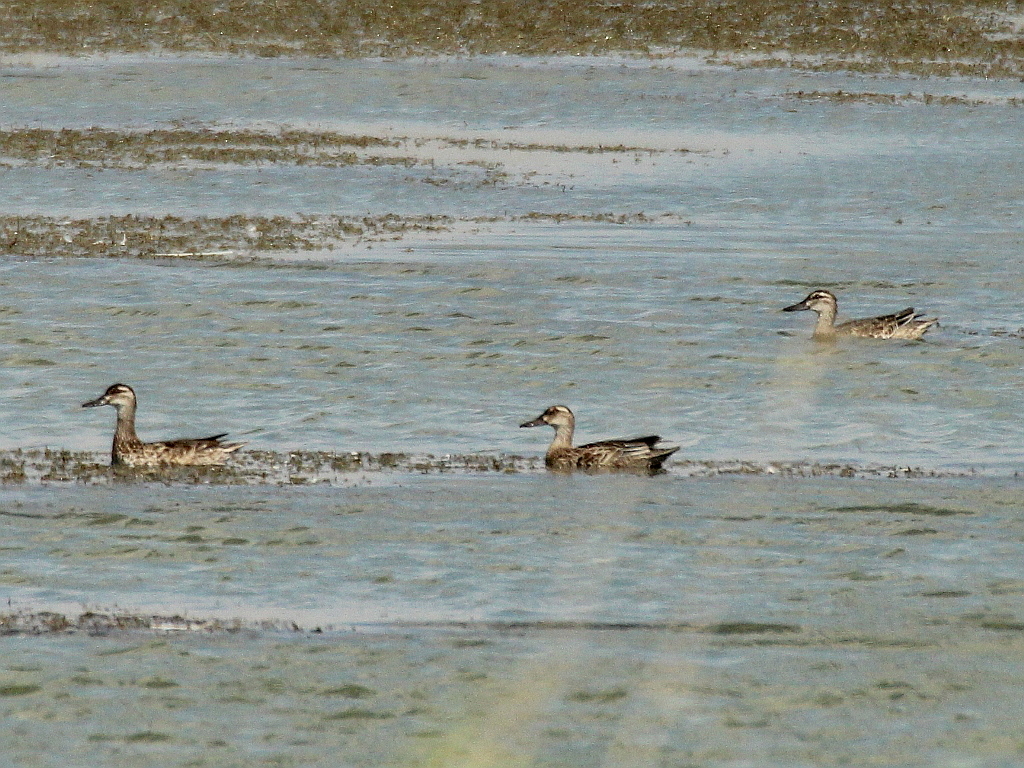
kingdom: Animalia
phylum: Chordata
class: Aves
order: Anseriformes
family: Anatidae
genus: Spatula
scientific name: Spatula querquedula
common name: Garganey
